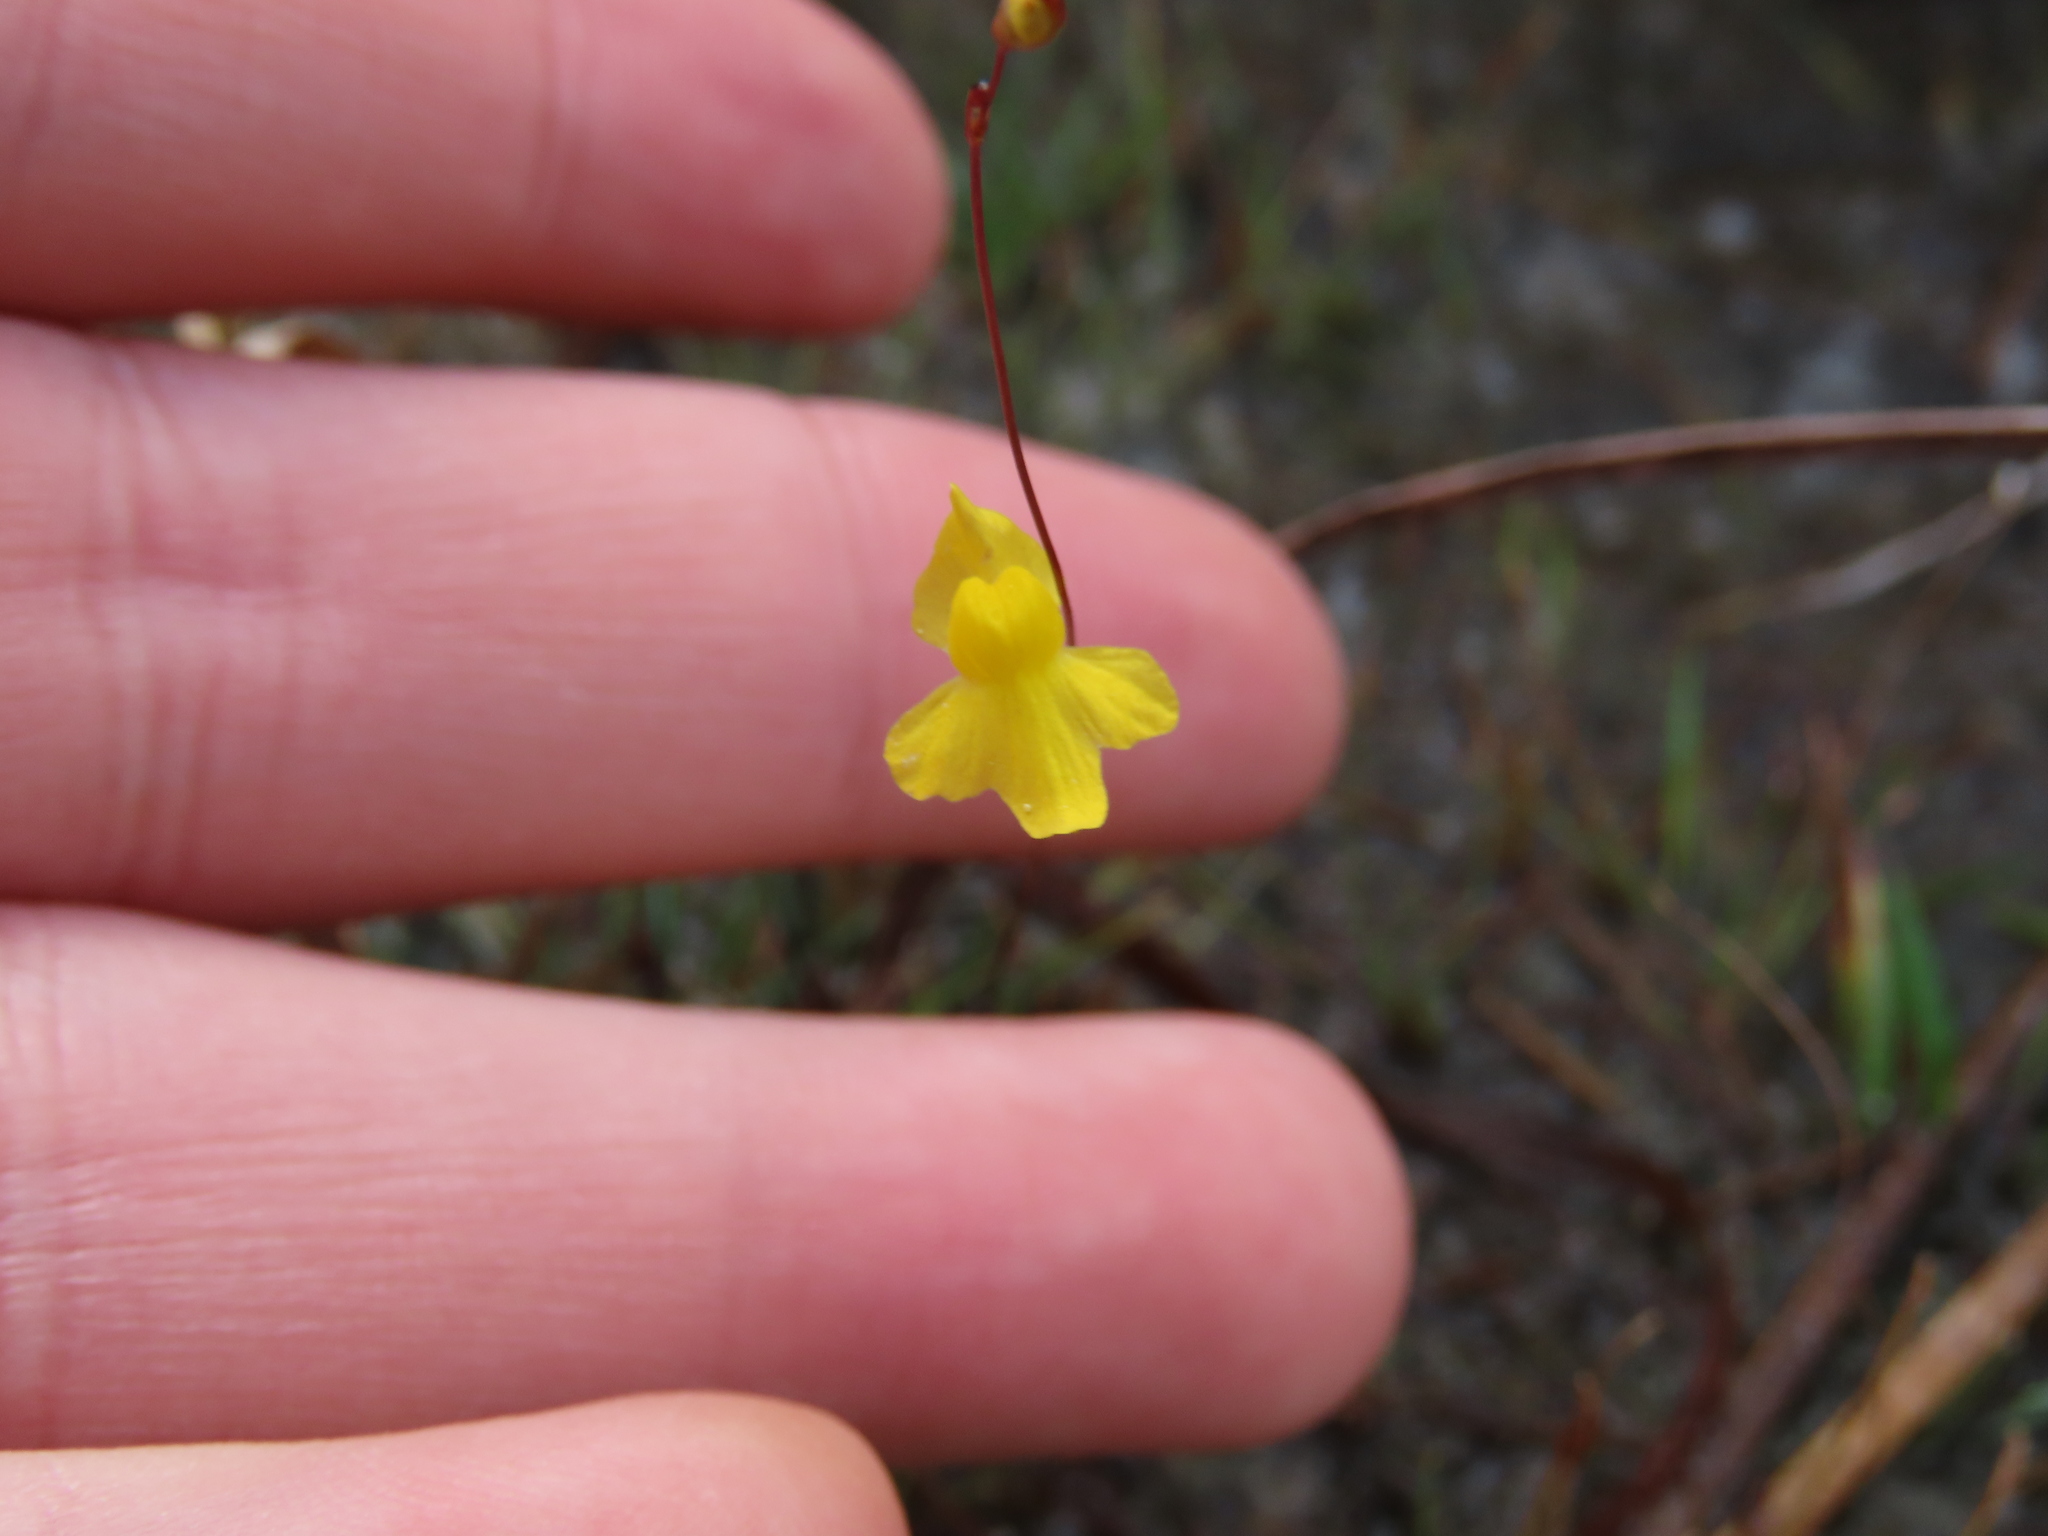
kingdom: Plantae
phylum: Tracheophyta
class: Magnoliopsida
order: Lamiales
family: Lentibulariaceae
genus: Utricularia
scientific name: Utricularia subulata
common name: Tiny bladderwort
